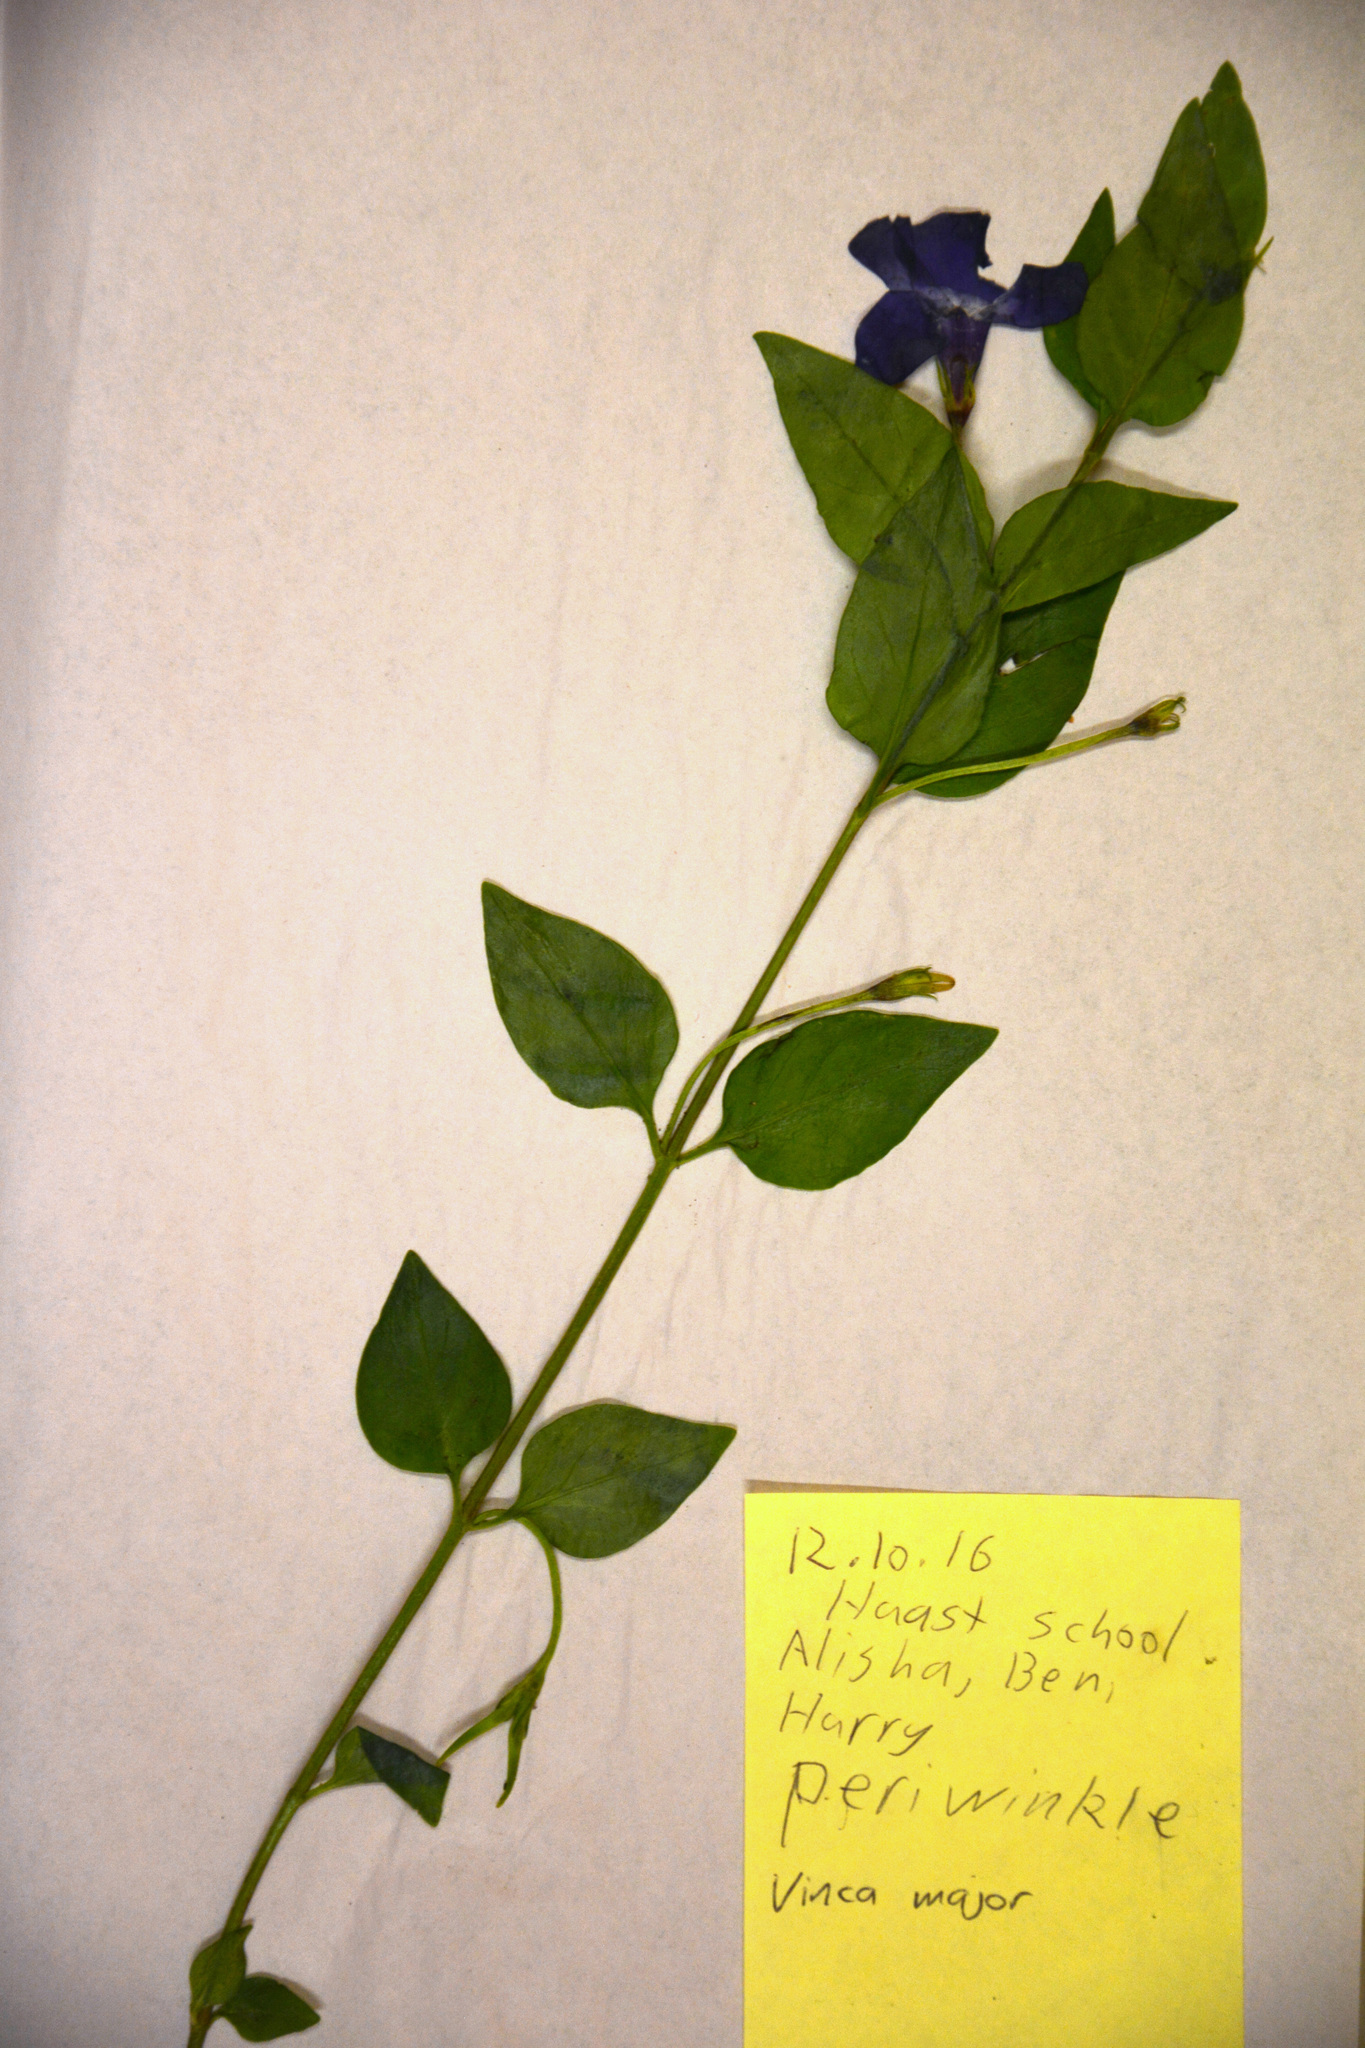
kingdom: Plantae
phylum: Tracheophyta
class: Magnoliopsida
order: Gentianales
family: Apocynaceae
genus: Vinca
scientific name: Vinca major
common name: Greater periwinkle
